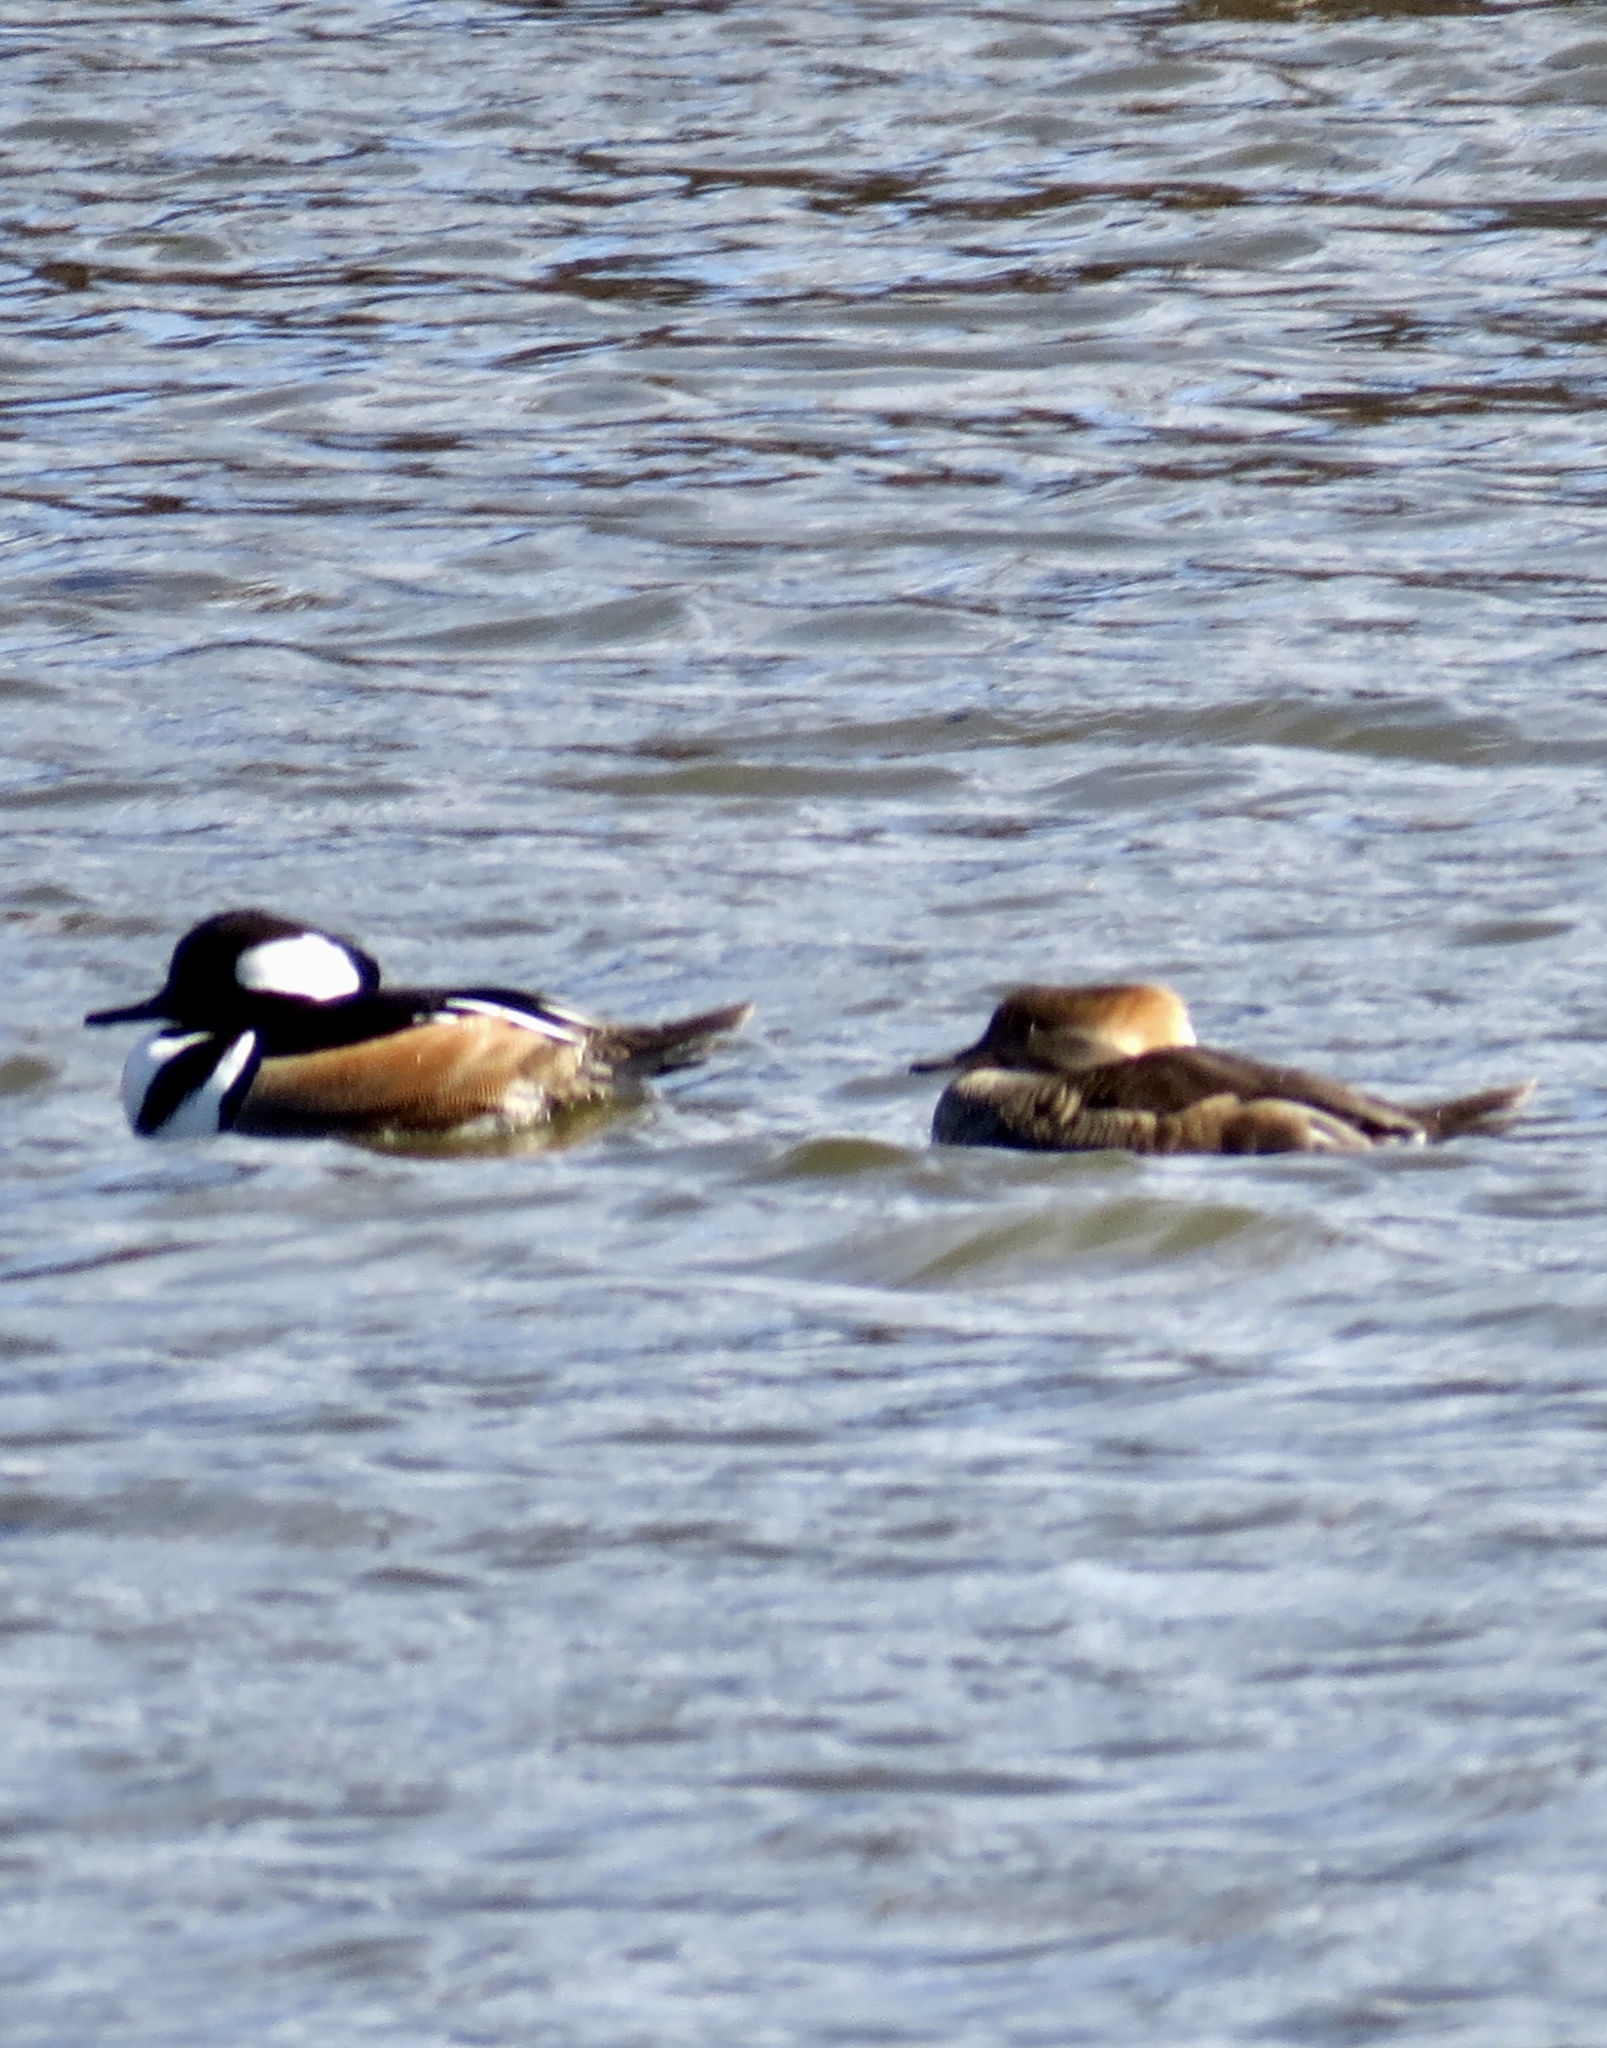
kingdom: Animalia
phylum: Chordata
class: Aves
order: Anseriformes
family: Anatidae
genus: Lophodytes
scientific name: Lophodytes cucullatus
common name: Hooded merganser
